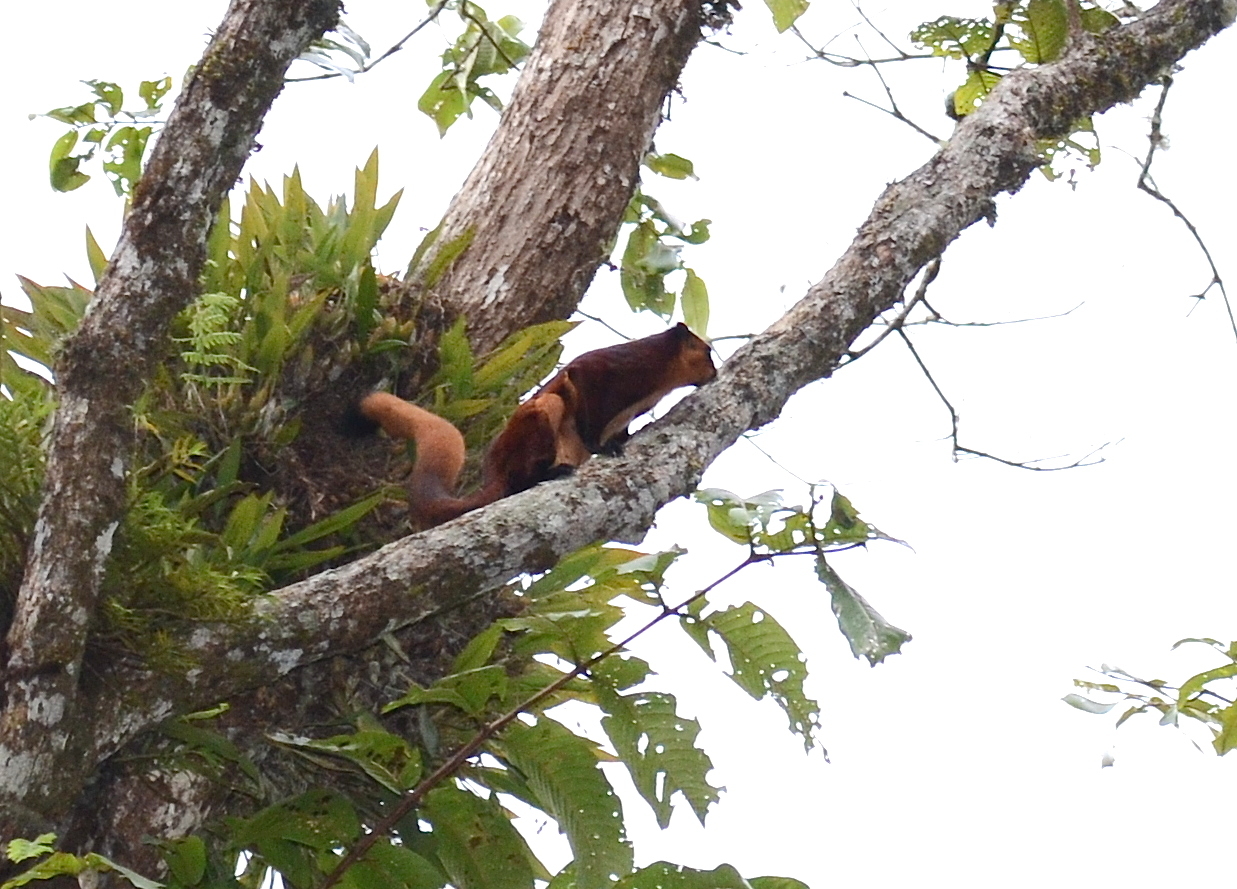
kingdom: Animalia
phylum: Chordata
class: Mammalia
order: Rodentia
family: Sciuridae
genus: Petaurista
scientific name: Petaurista petaurista
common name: Red giant flying squirrel
